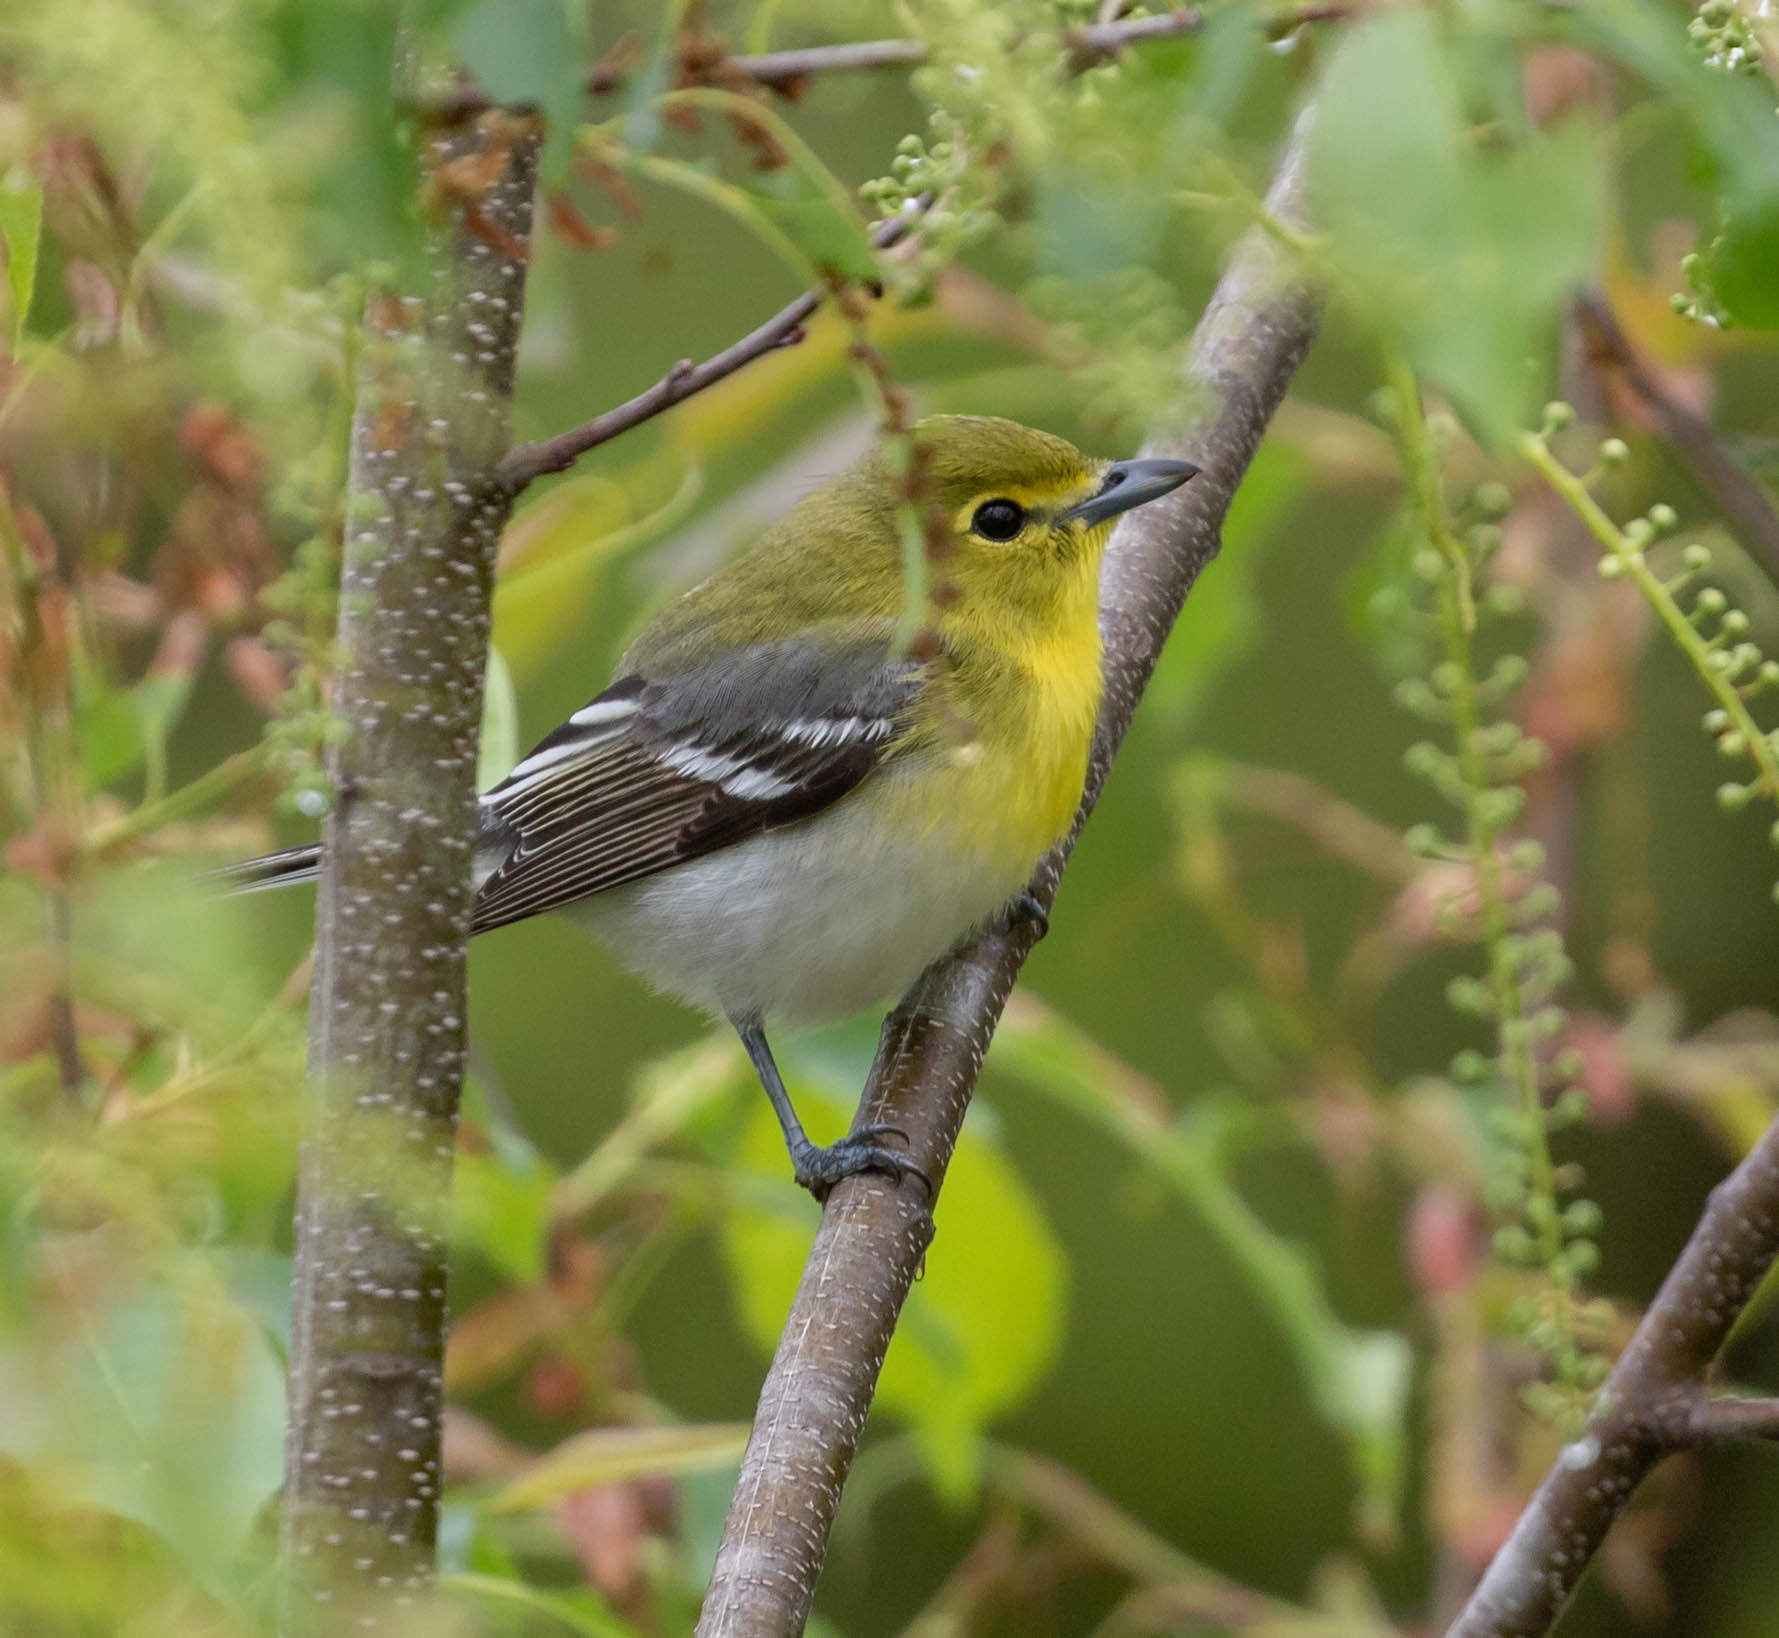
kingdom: Animalia
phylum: Chordata
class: Aves
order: Passeriformes
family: Vireonidae
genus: Vireo
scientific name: Vireo flavifrons
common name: Yellow-throated vireo
